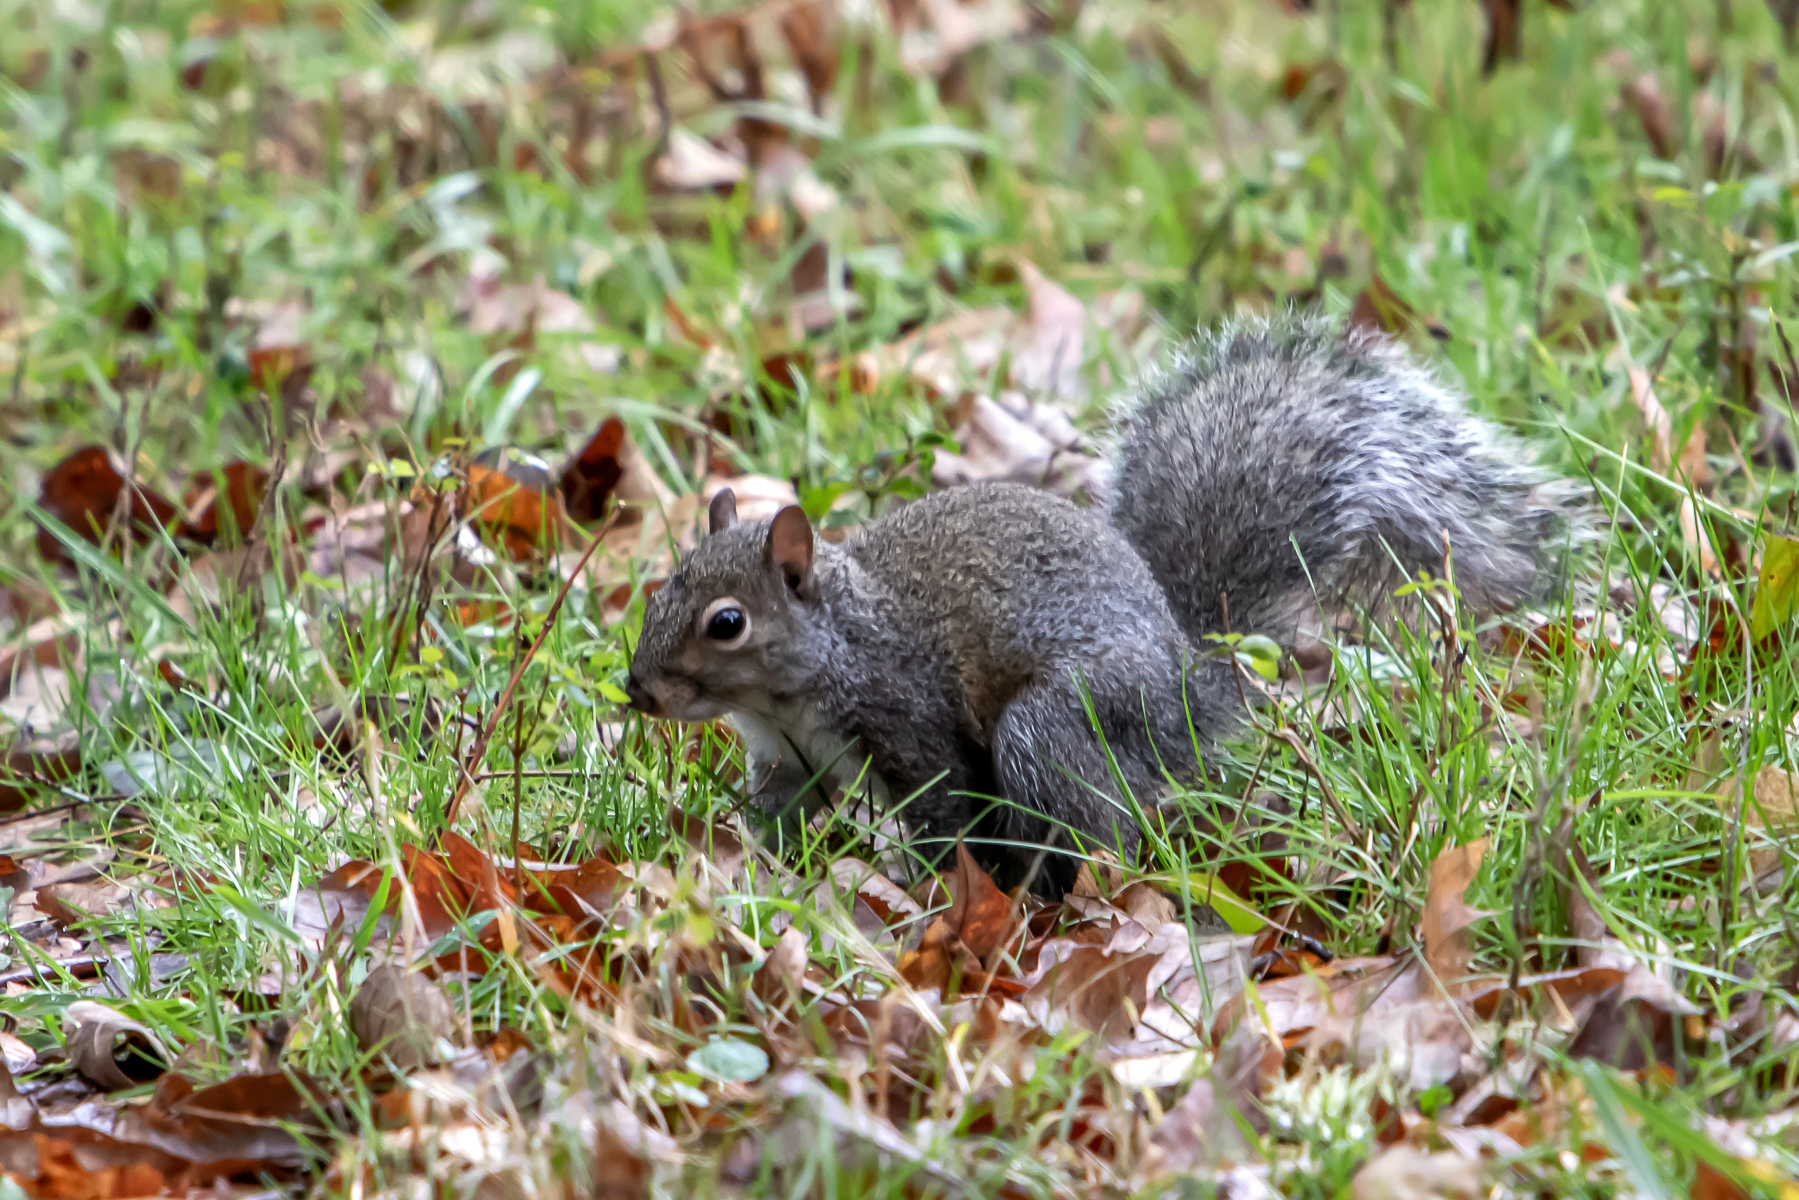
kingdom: Animalia
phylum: Chordata
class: Mammalia
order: Rodentia
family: Sciuridae
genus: Sciurus
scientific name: Sciurus carolinensis
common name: Eastern gray squirrel
